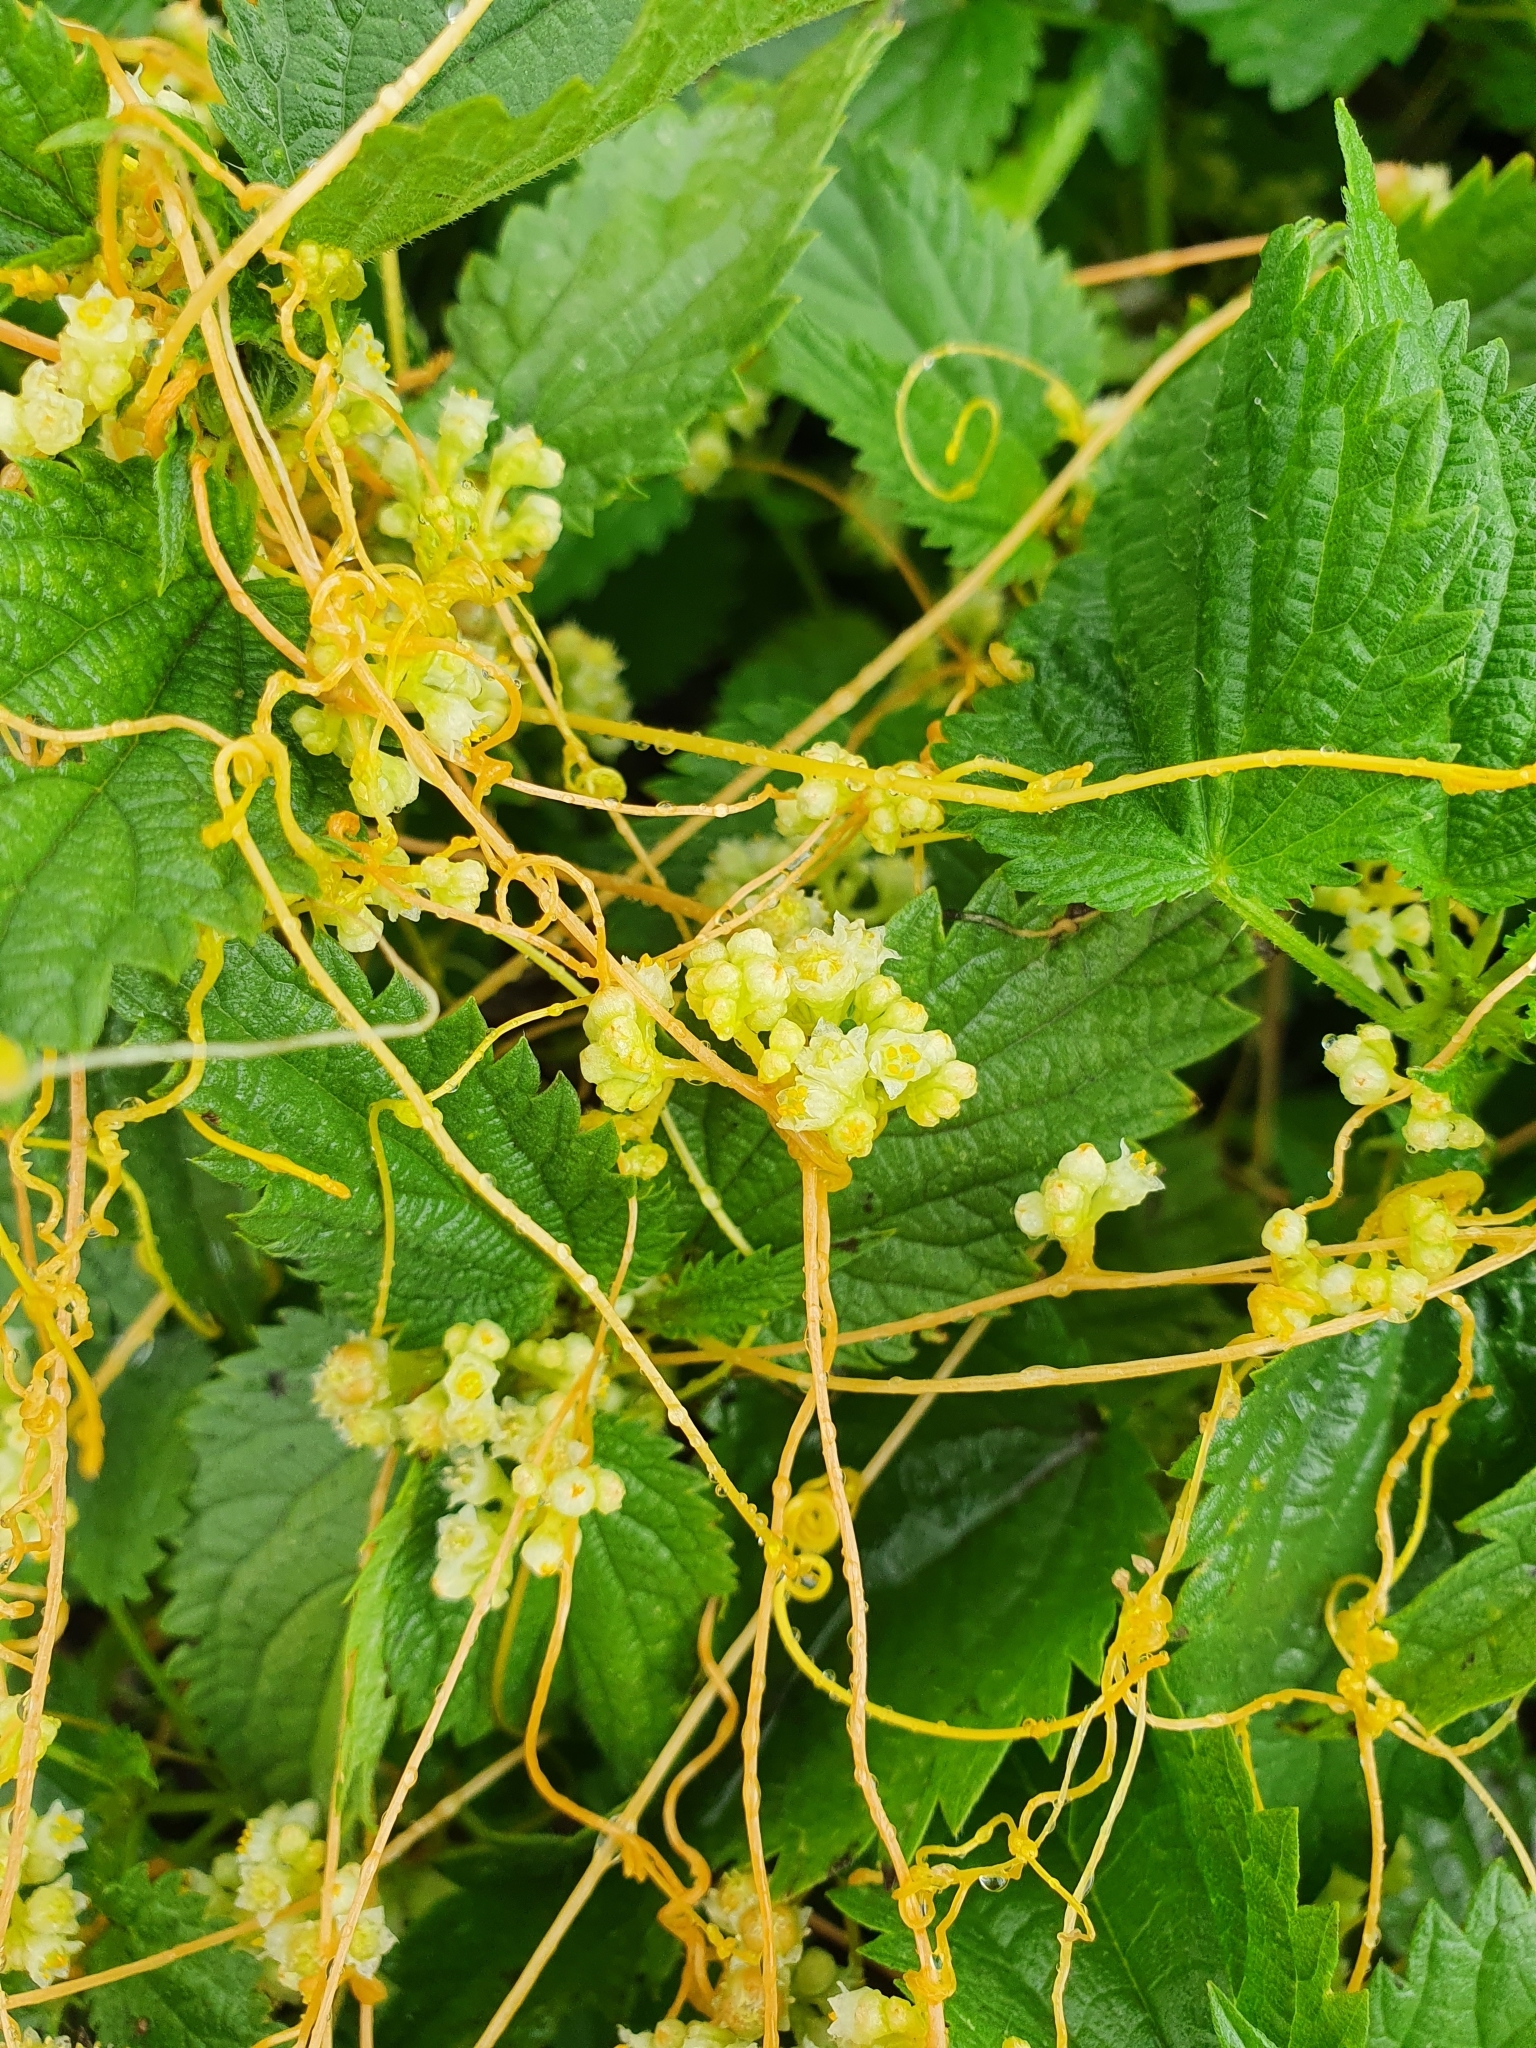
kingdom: Plantae
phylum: Tracheophyta
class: Magnoliopsida
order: Solanales
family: Convolvulaceae
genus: Cuscuta
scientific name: Cuscuta campestris
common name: Yellow dodder
